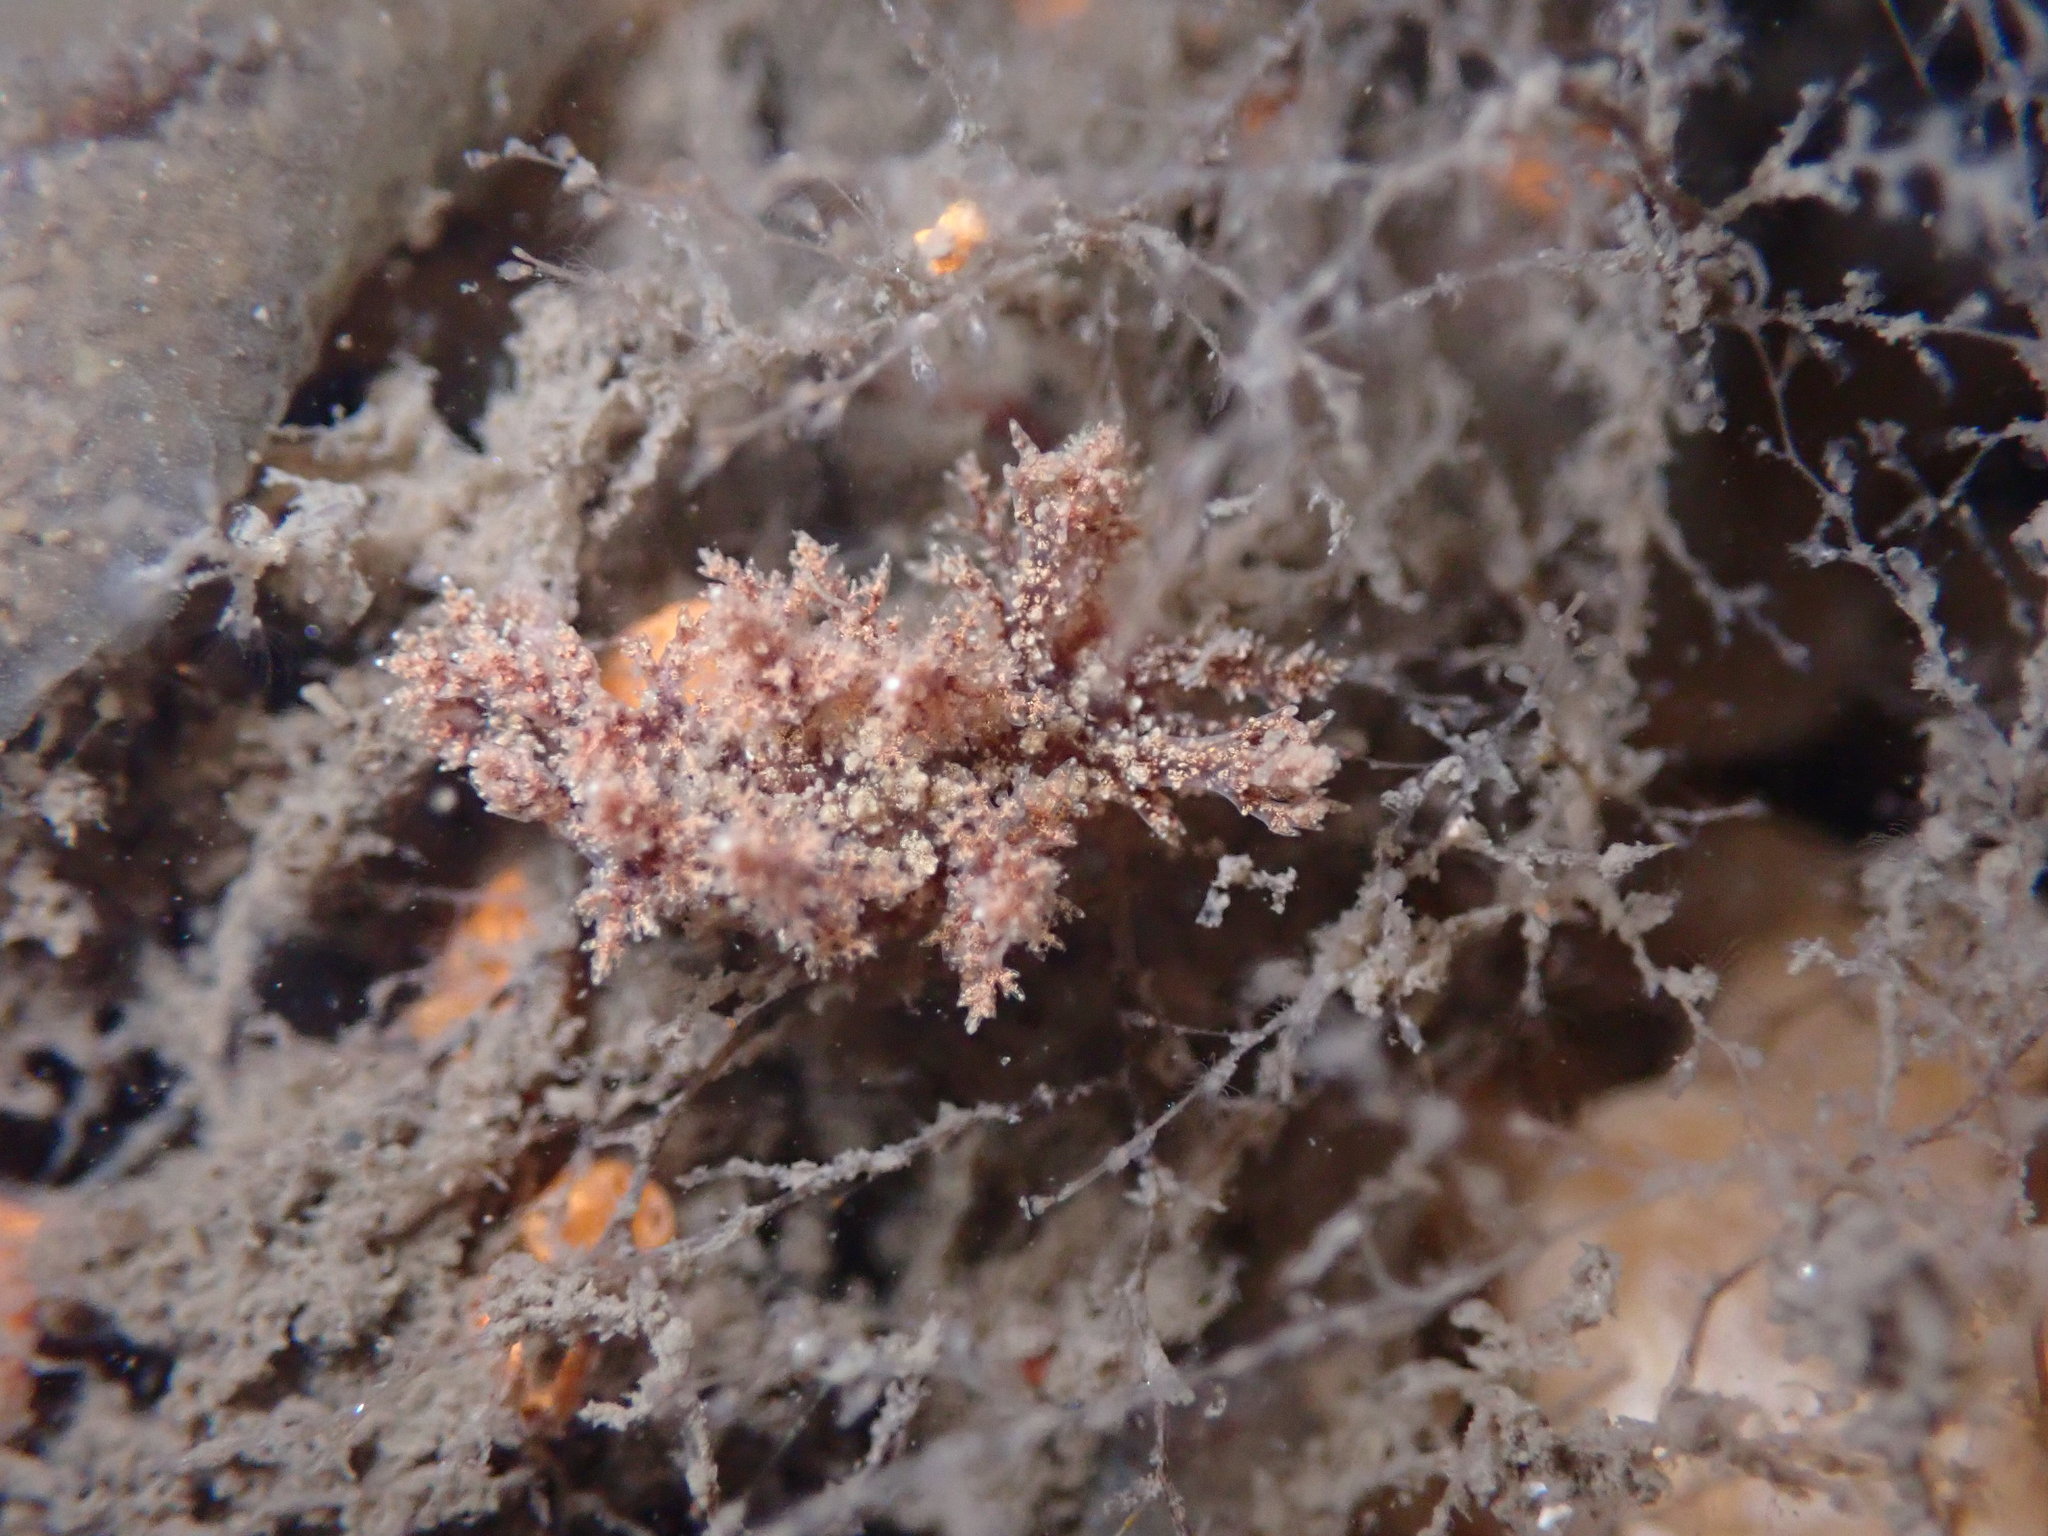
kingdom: Animalia
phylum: Mollusca
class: Gastropoda
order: Nudibranchia
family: Dendronotidae
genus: Dendronotus
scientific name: Dendronotus venustus
